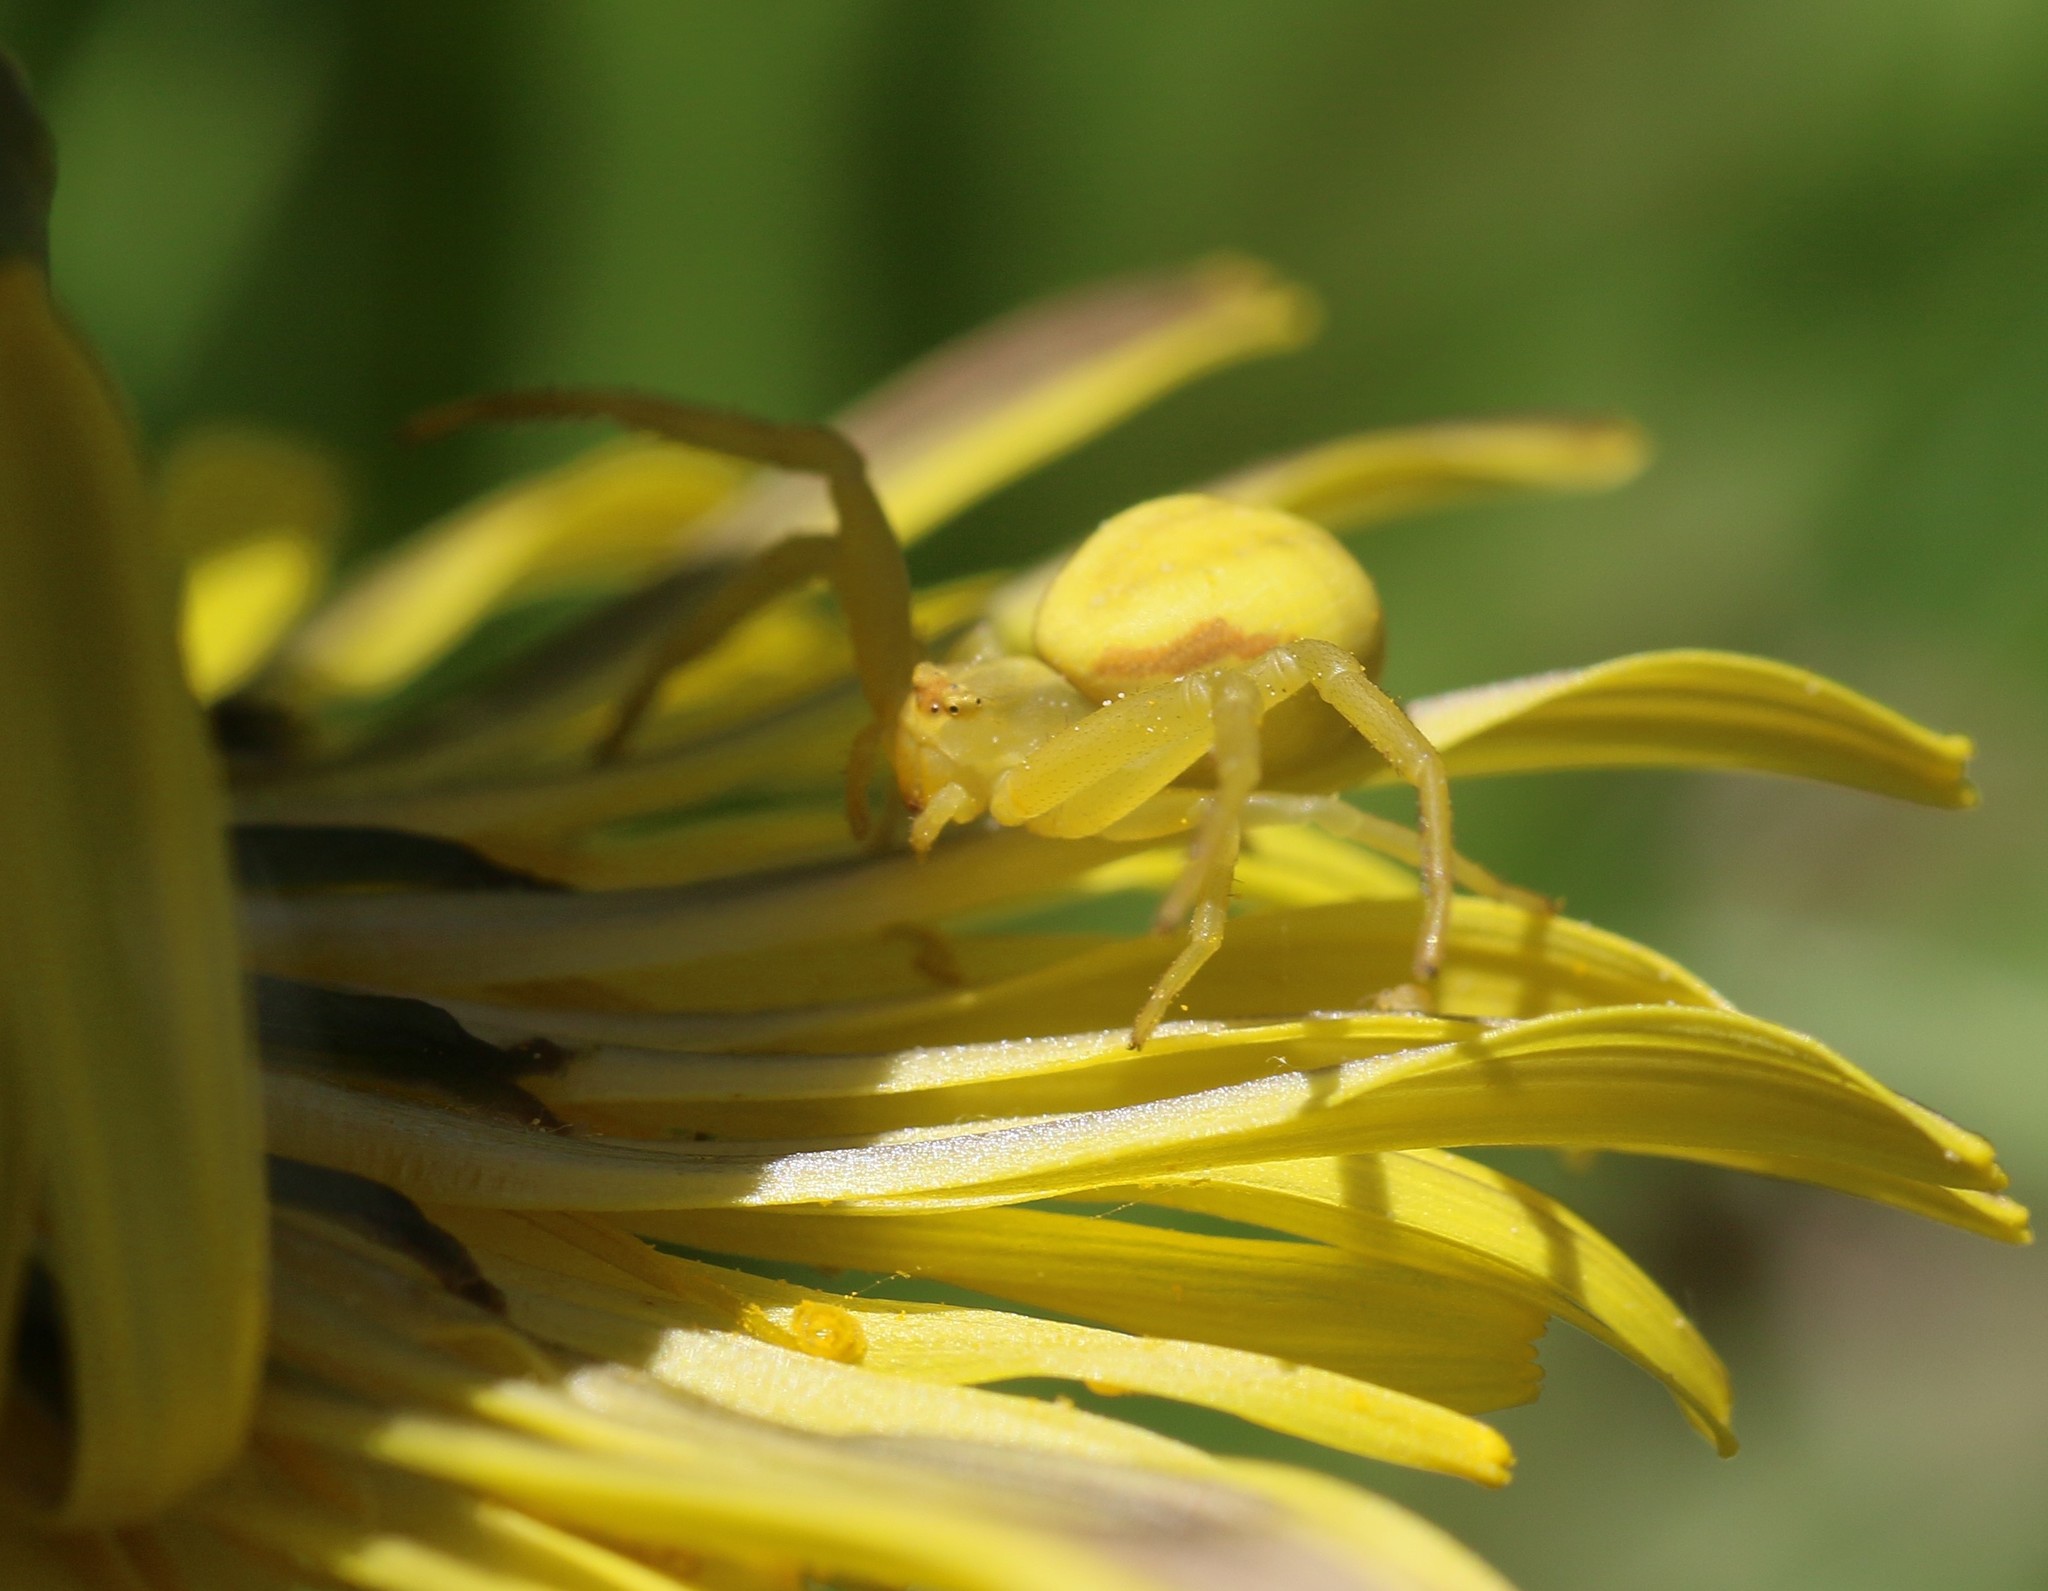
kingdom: Animalia
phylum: Arthropoda
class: Arachnida
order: Araneae
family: Thomisidae
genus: Misumena
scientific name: Misumena vatia
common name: Goldenrod crab spider
